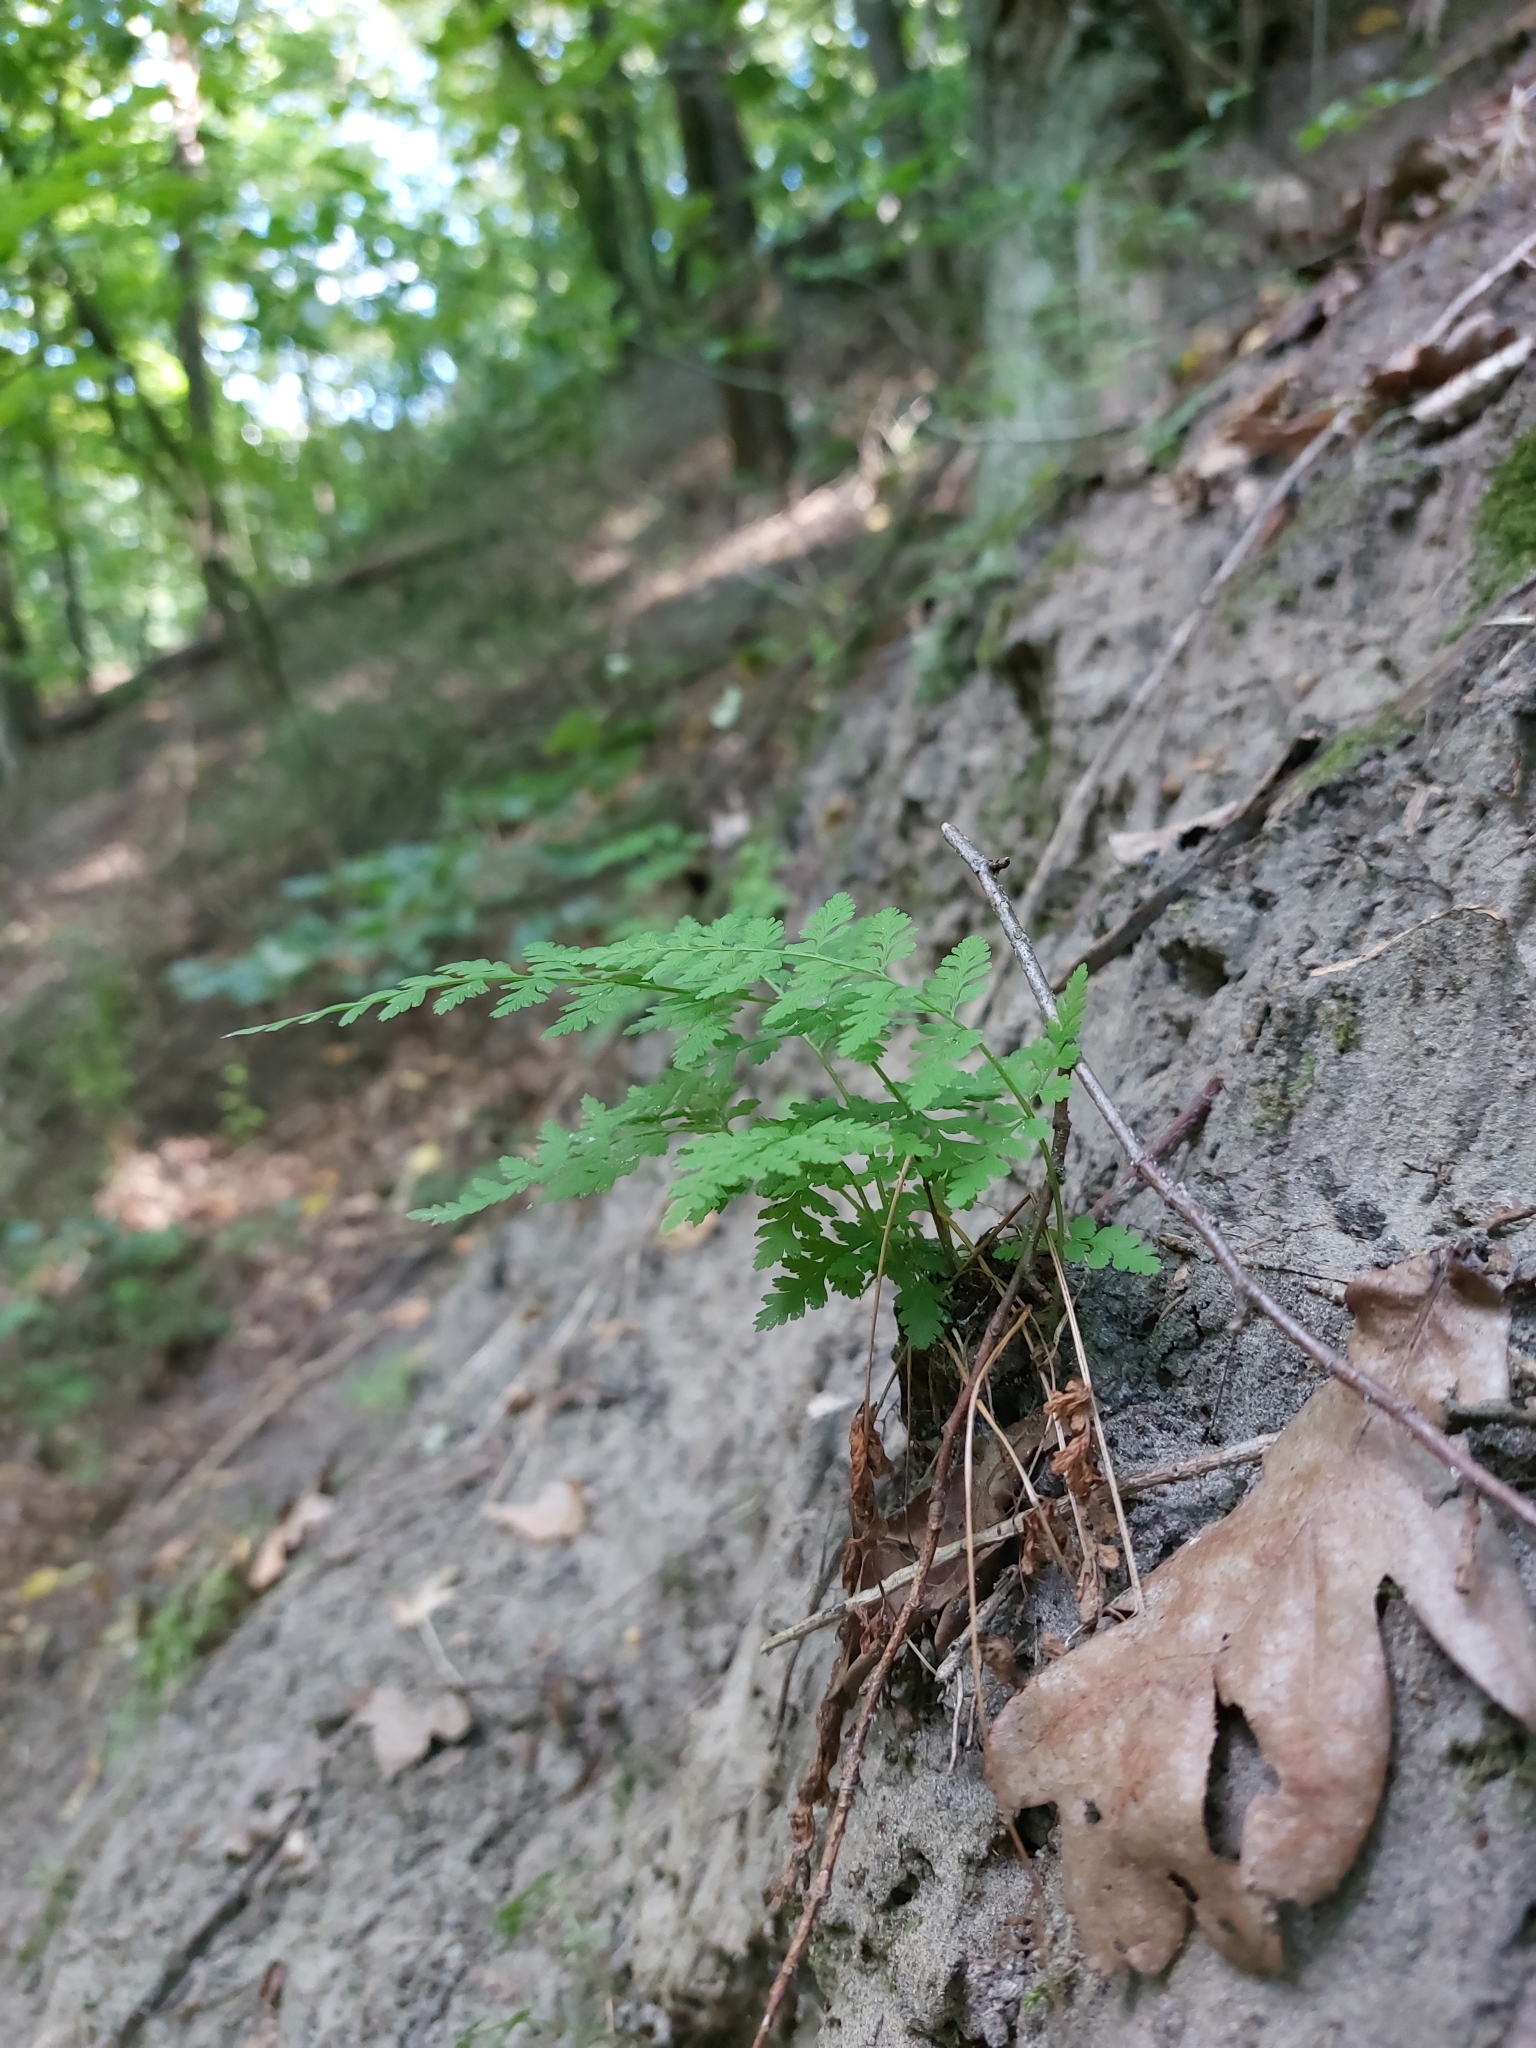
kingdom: Plantae
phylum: Tracheophyta
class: Polypodiopsida
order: Polypodiales
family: Cystopteridaceae
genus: Cystopteris
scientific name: Cystopteris fragilis
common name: Brittle bladder fern
